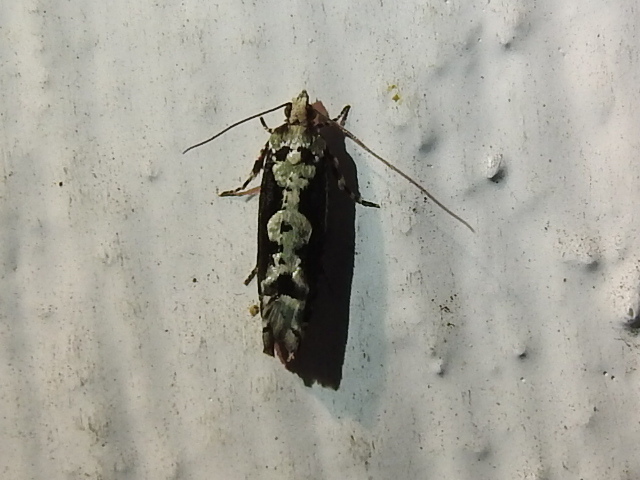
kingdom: Animalia
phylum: Arthropoda
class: Insecta
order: Lepidoptera
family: Tortricidae
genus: Chimoptesis
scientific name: Chimoptesis pennsylvaniana
